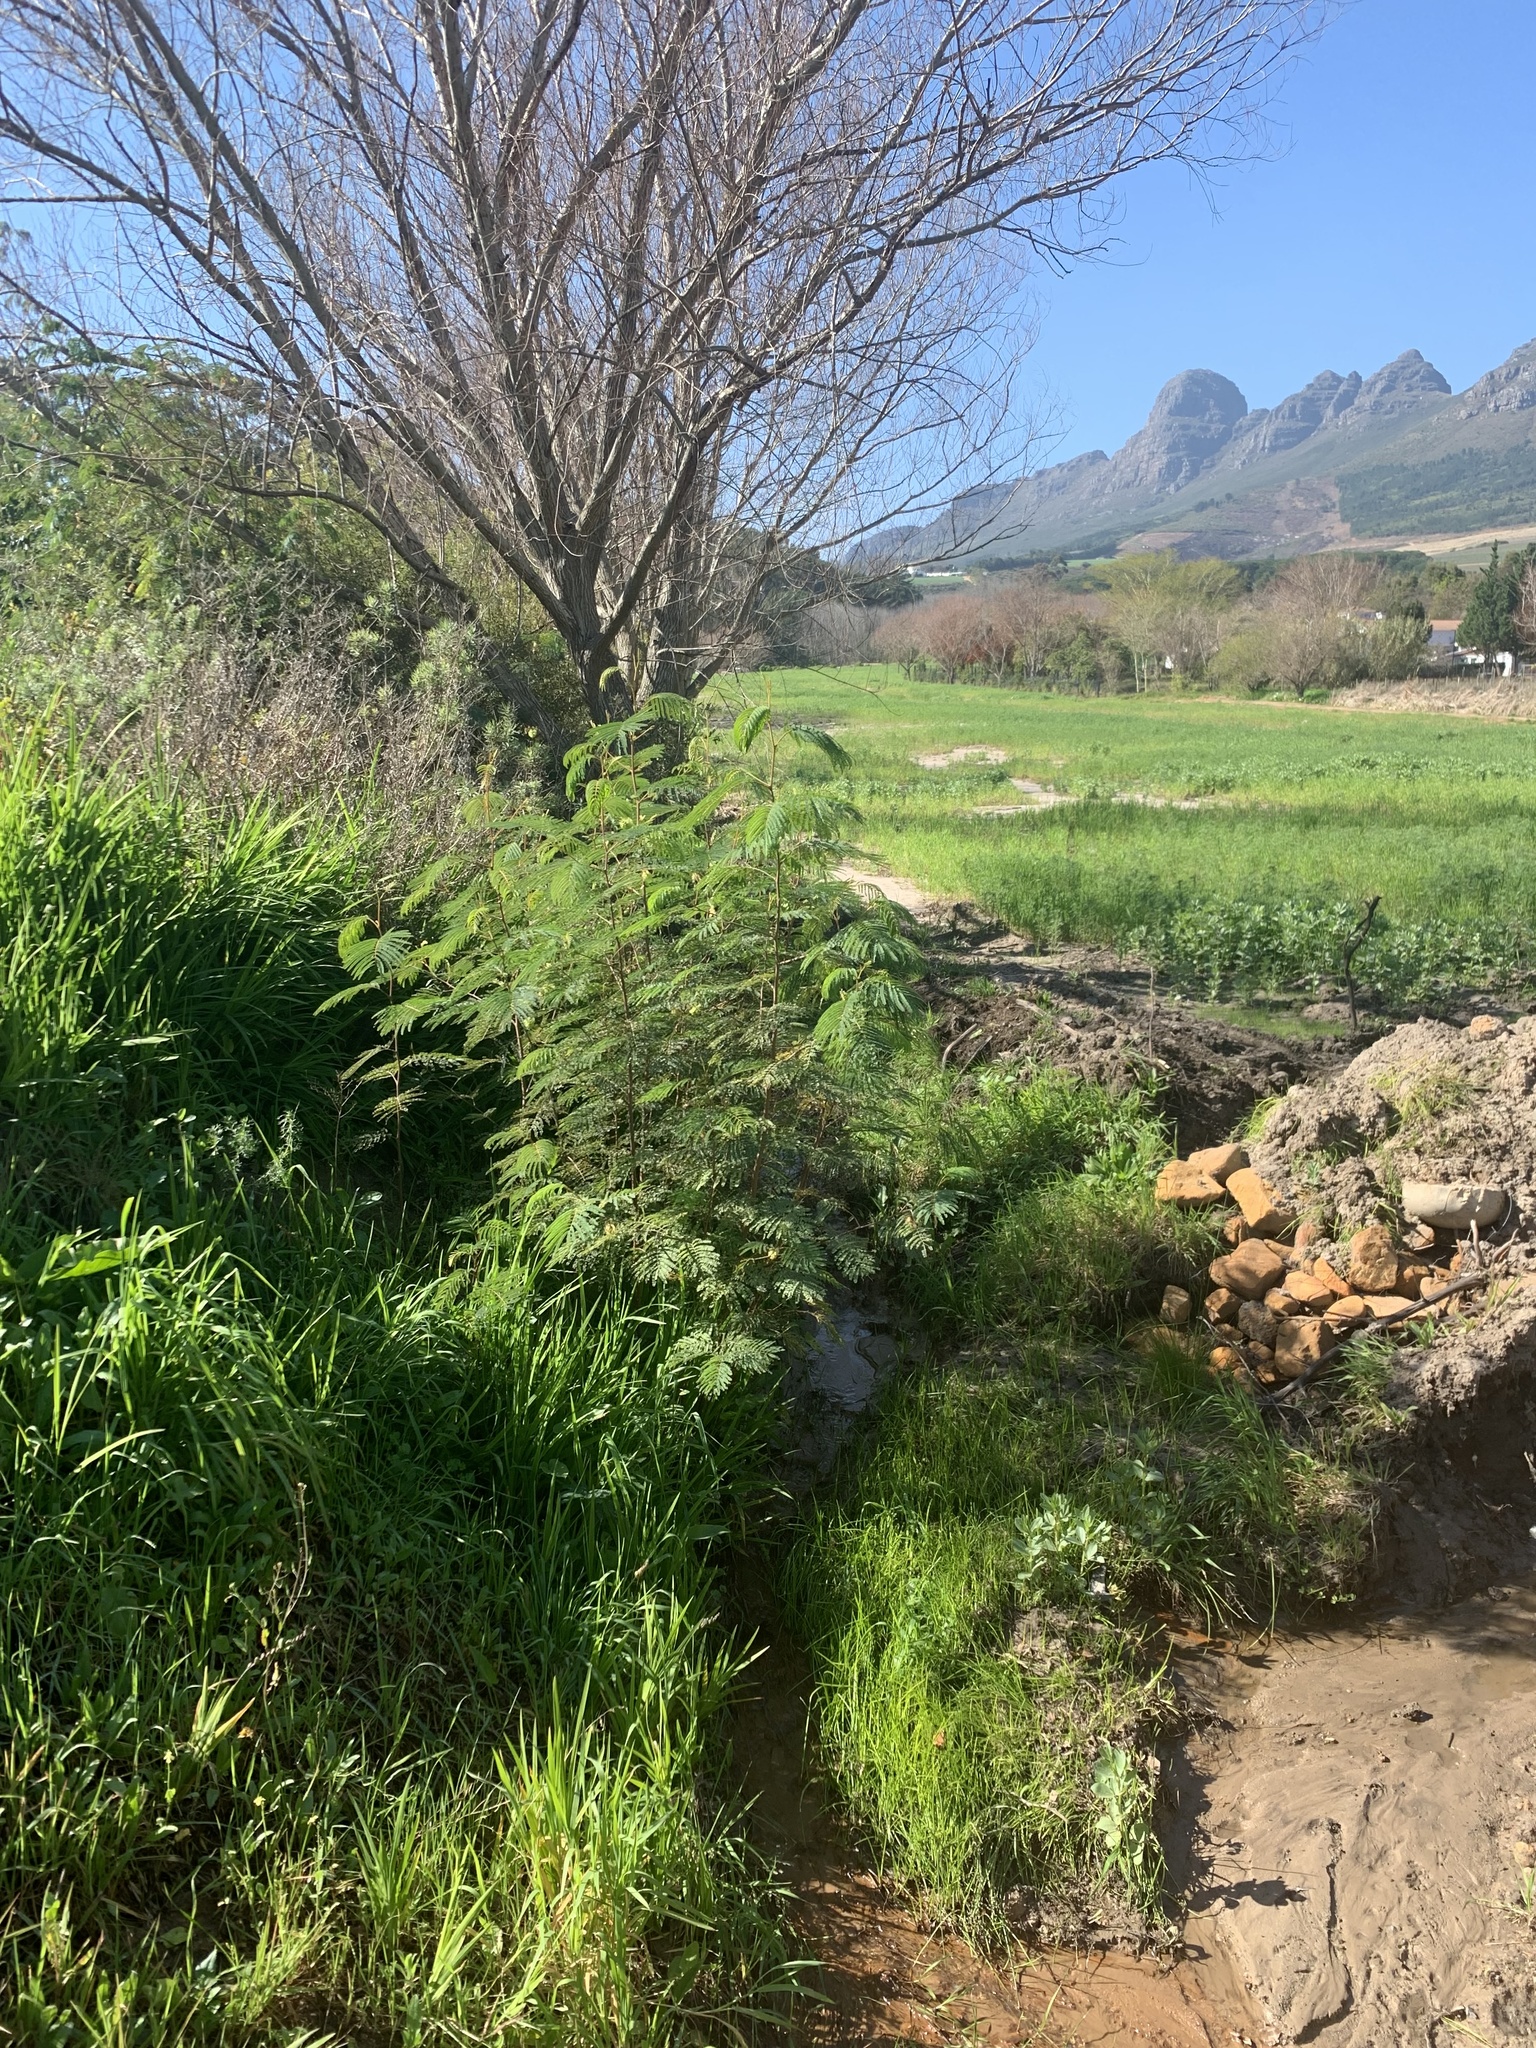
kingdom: Plantae
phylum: Tracheophyta
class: Magnoliopsida
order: Fabales
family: Fabaceae
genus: Paraserianthes
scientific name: Paraserianthes lophantha
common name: Plume albizia
